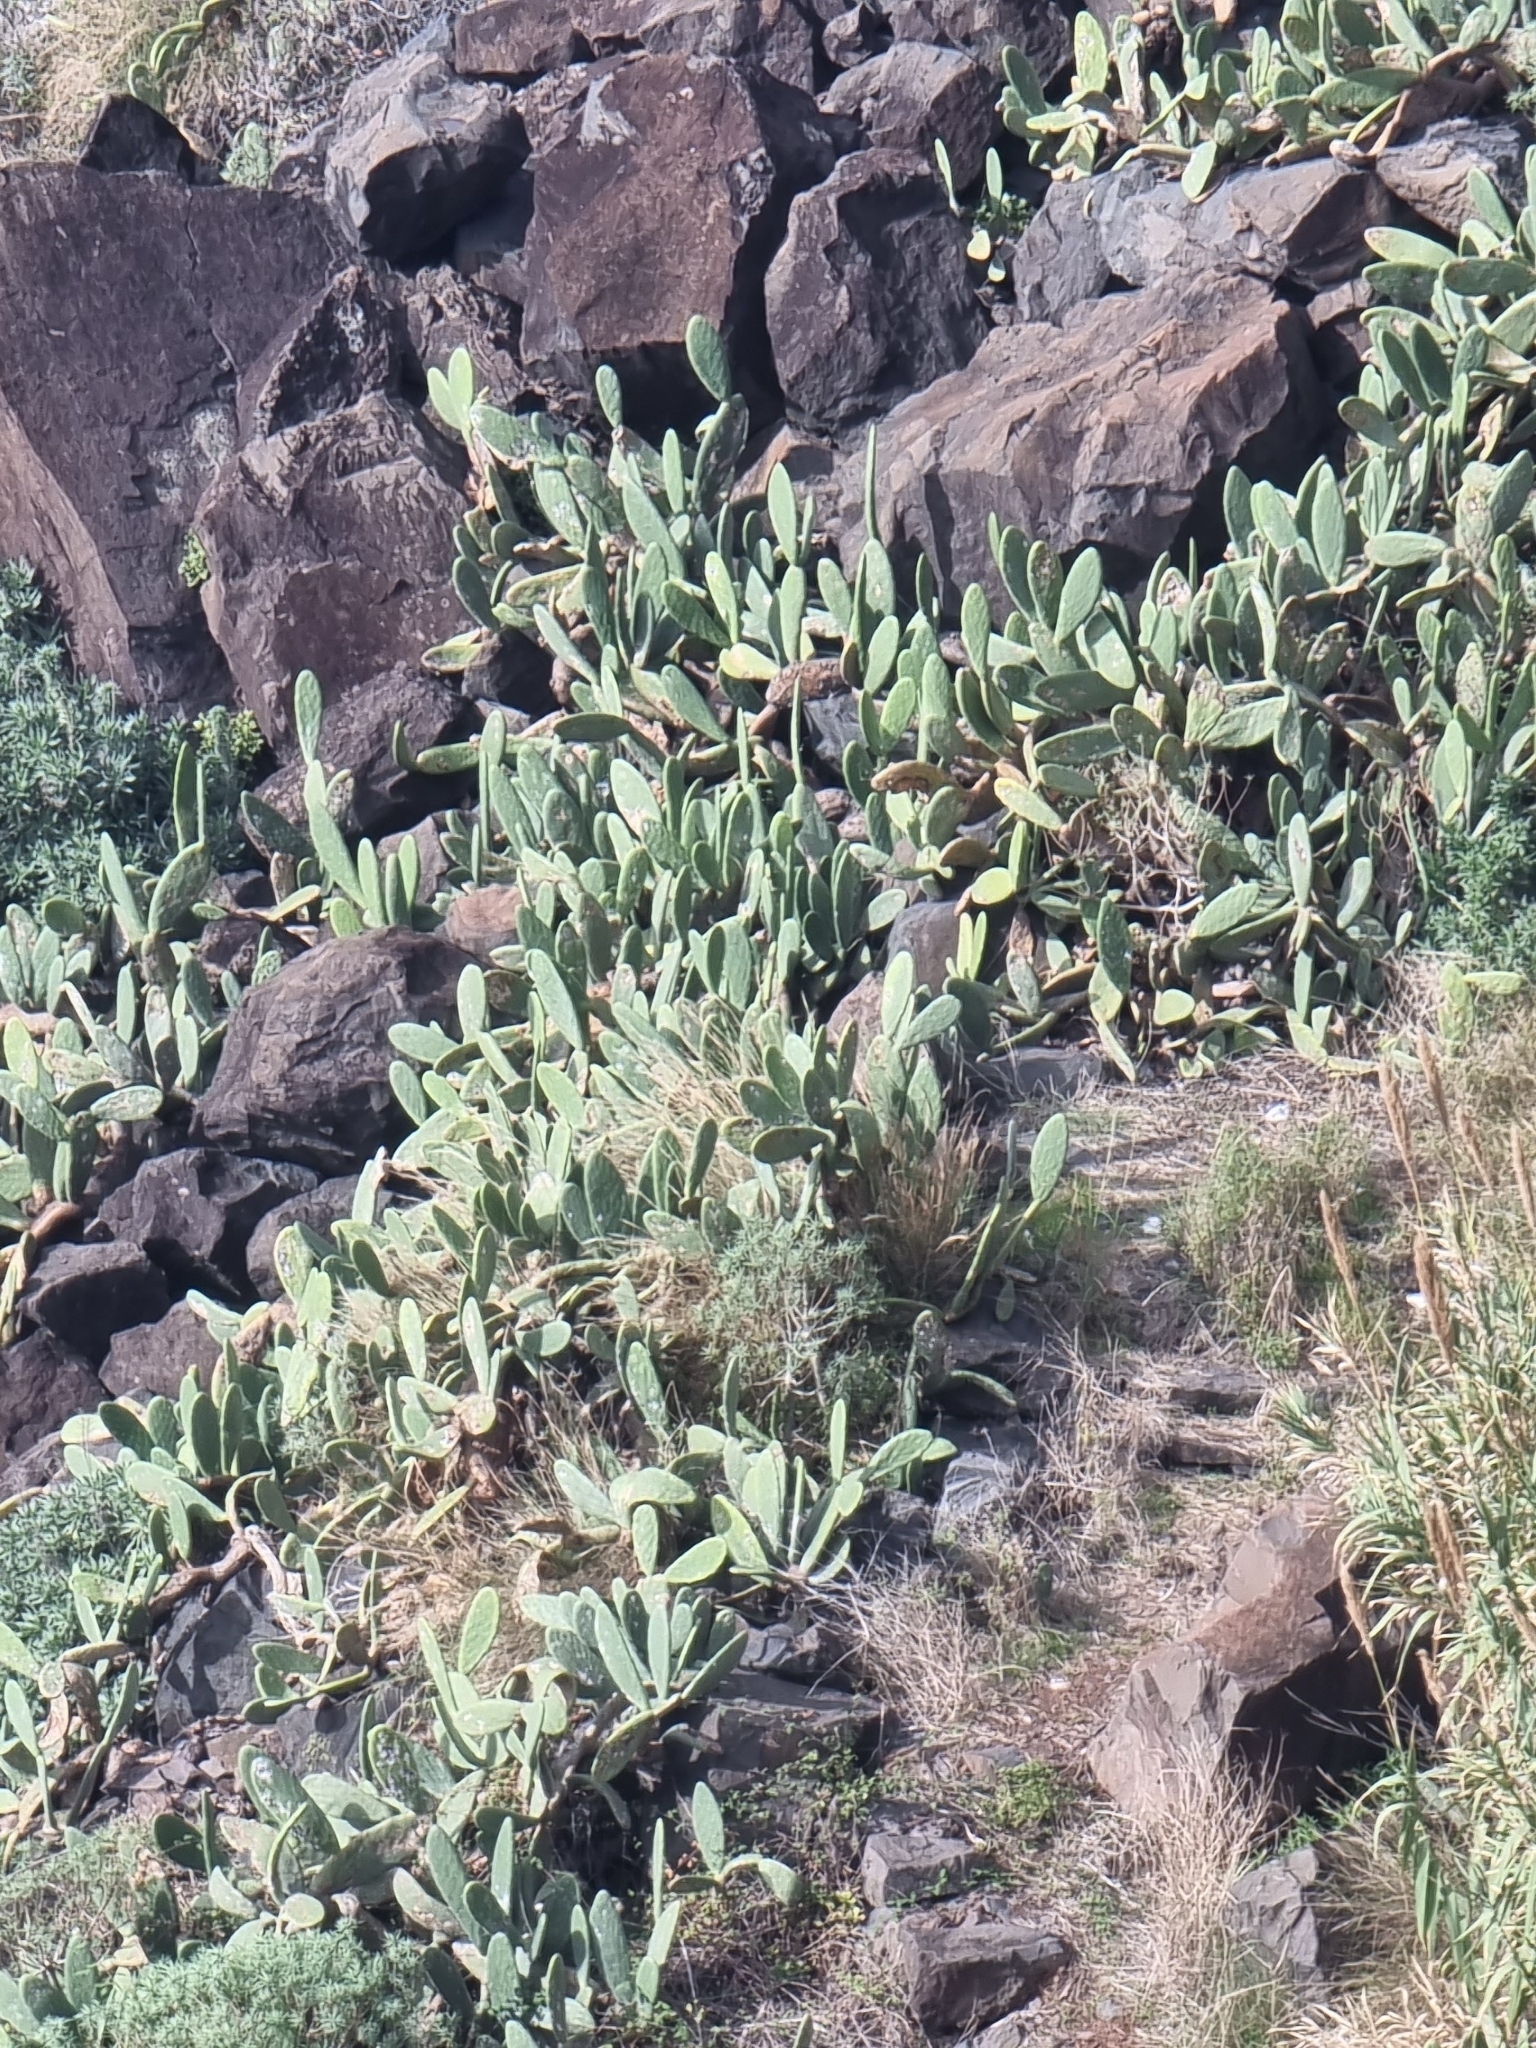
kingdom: Plantae
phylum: Tracheophyta
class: Magnoliopsida
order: Caryophyllales
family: Cactaceae
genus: Opuntia
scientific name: Opuntia ficus-indica
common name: Barbary fig
